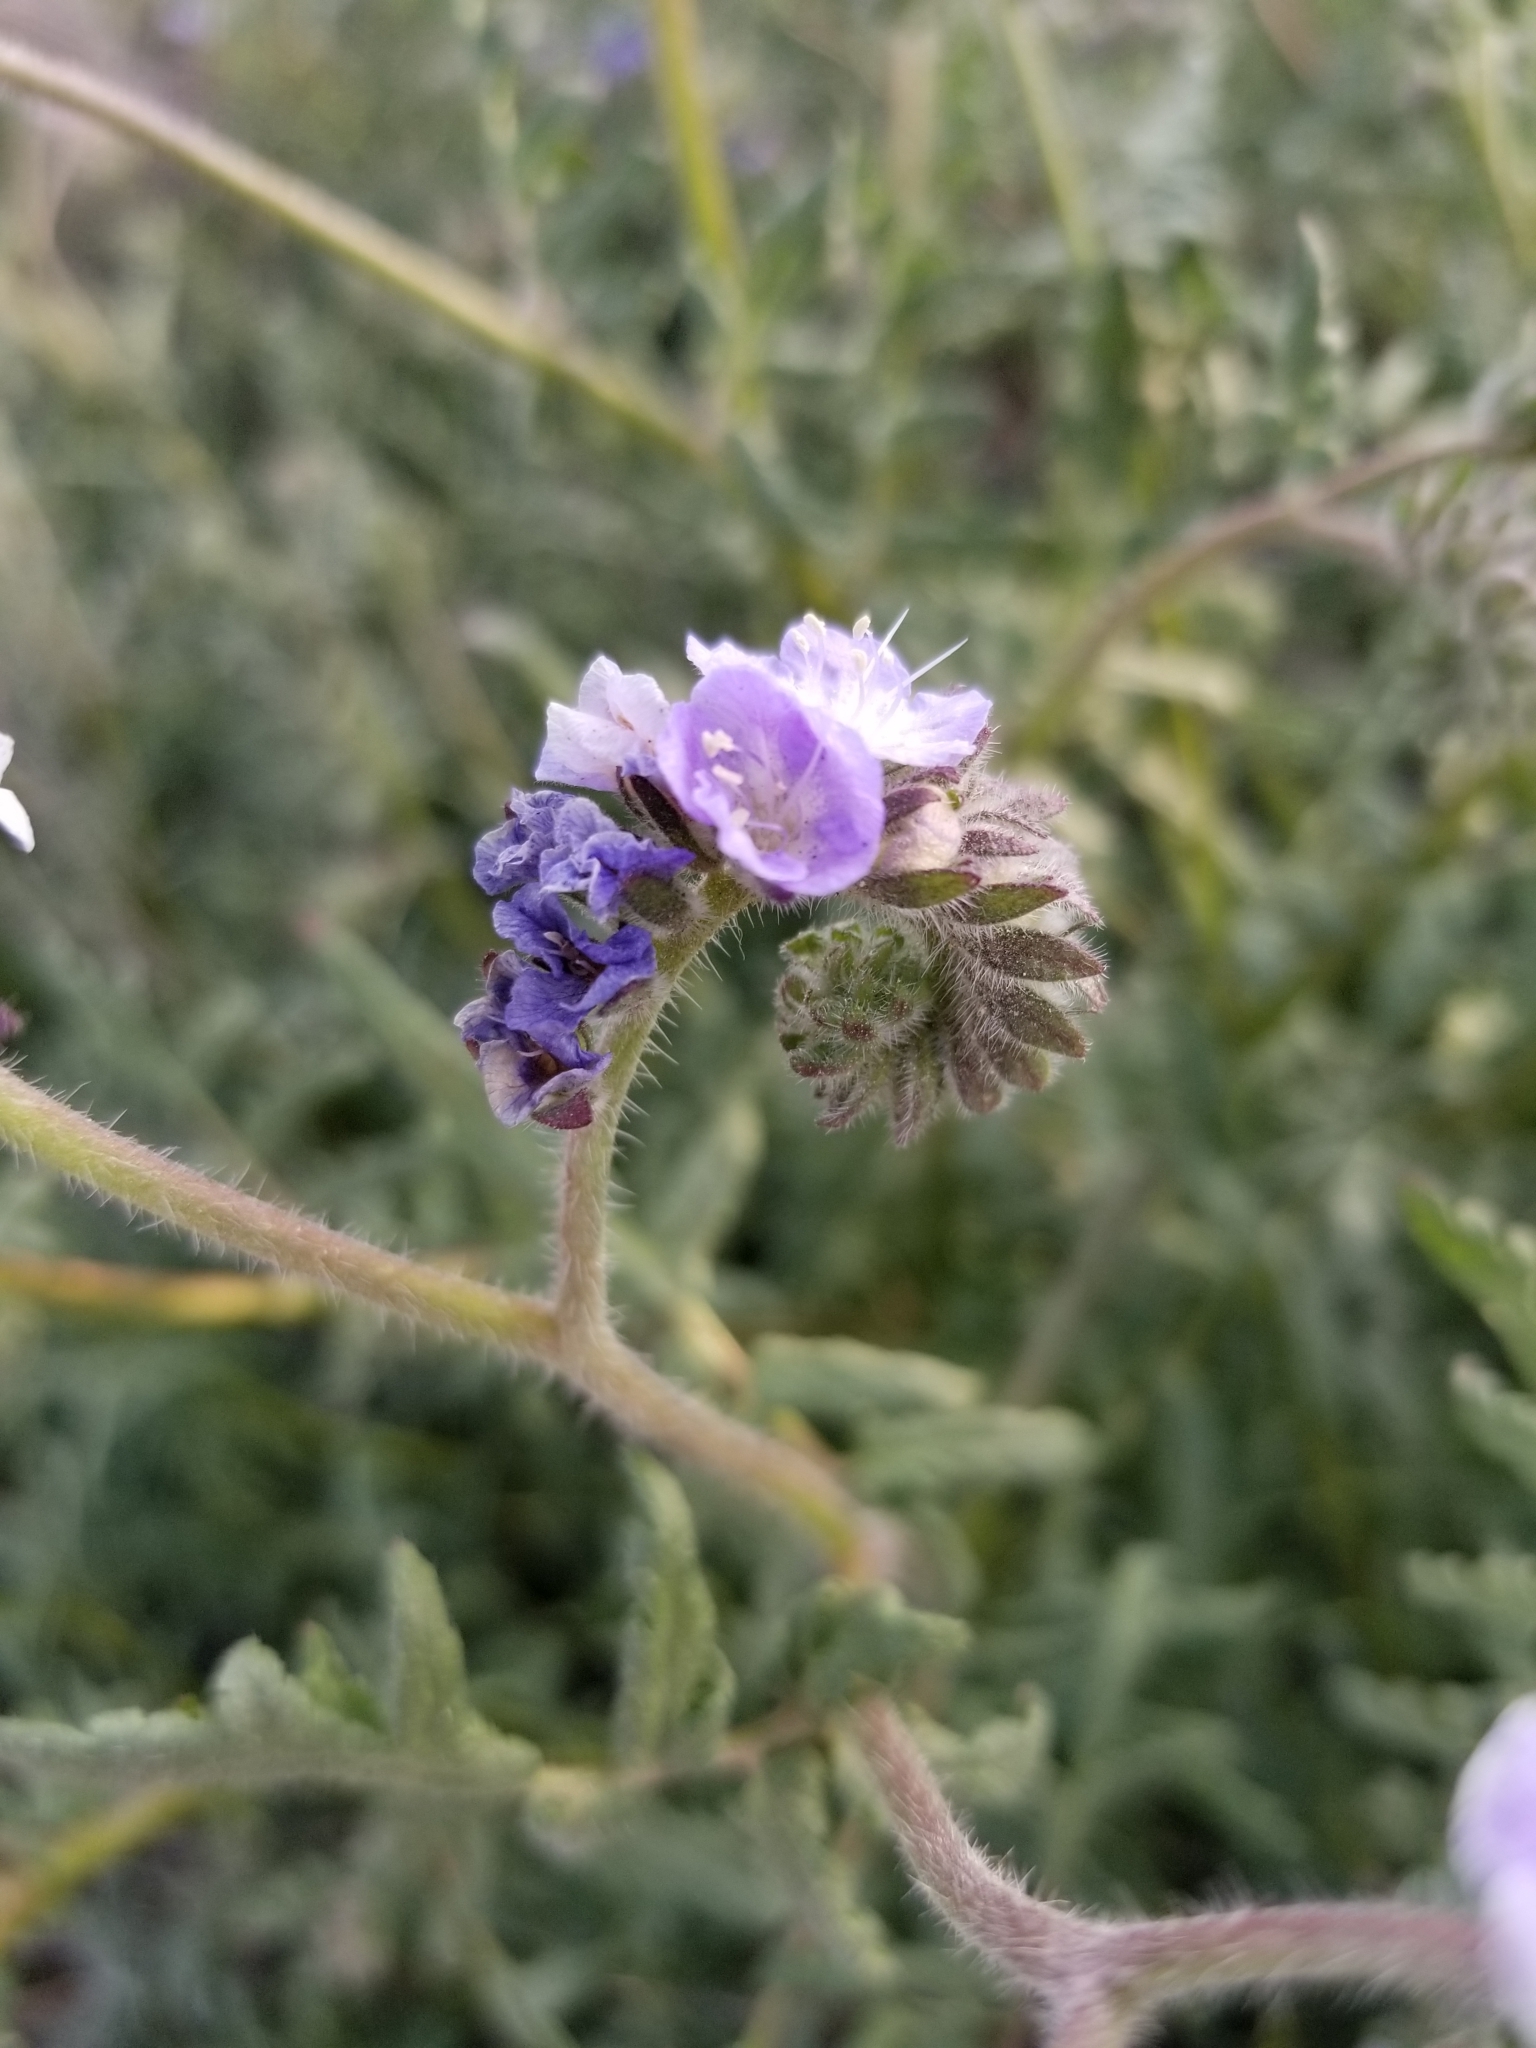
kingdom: Plantae
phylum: Tracheophyta
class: Magnoliopsida
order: Boraginales
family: Hydrophyllaceae
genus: Phacelia
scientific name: Phacelia distans
